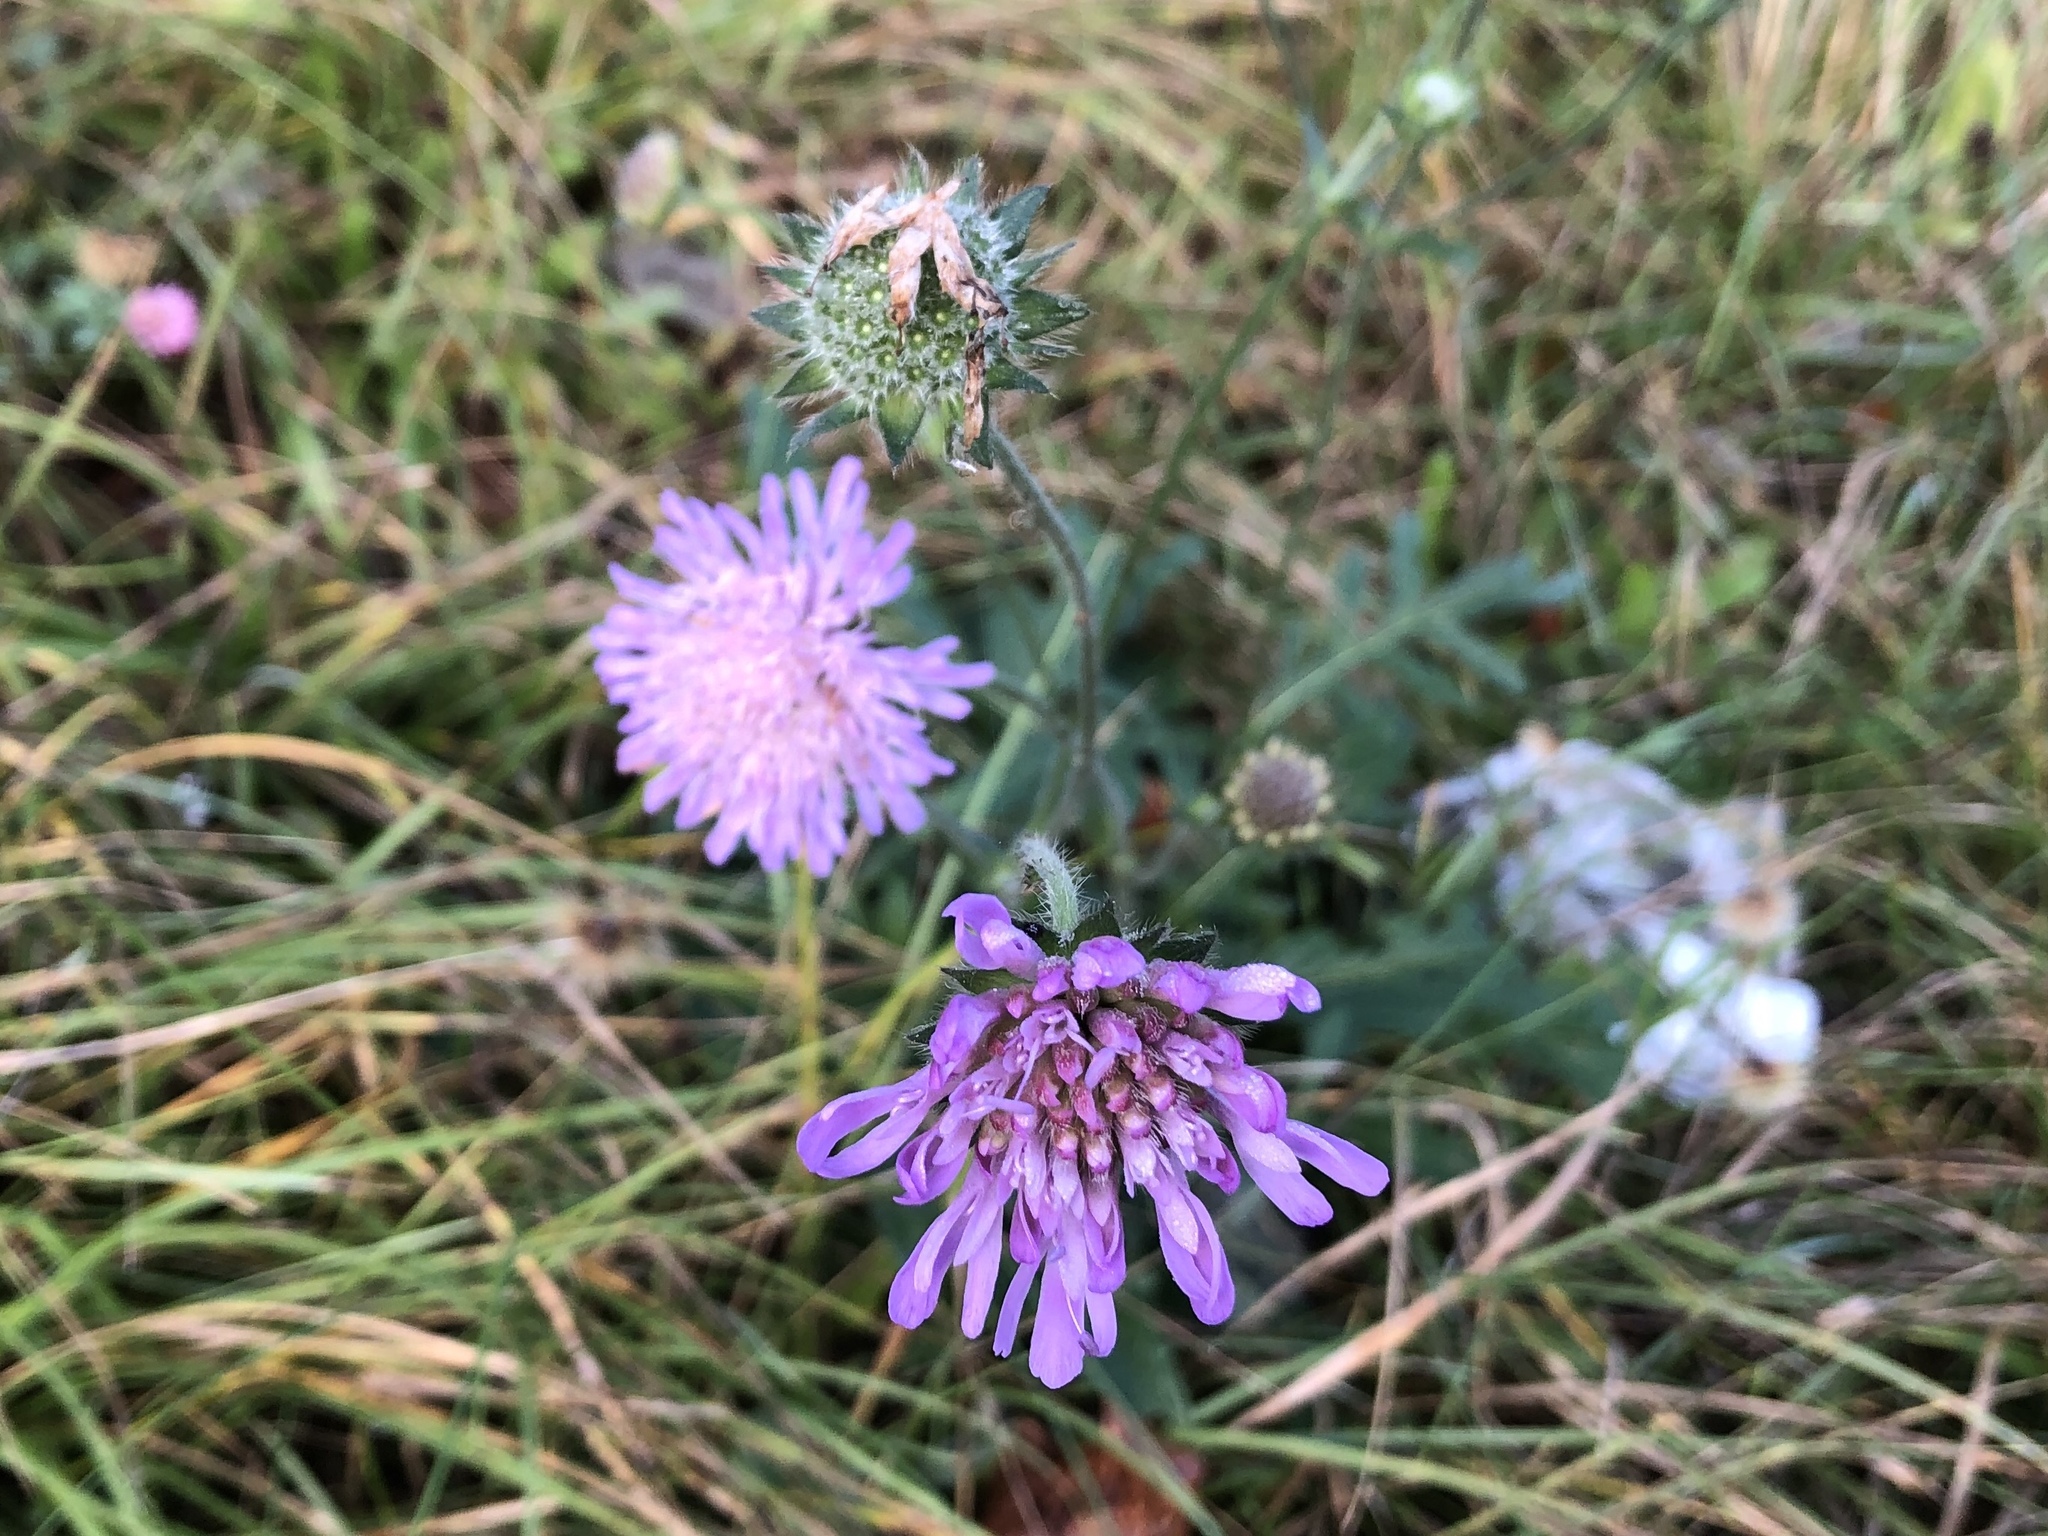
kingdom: Plantae
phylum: Tracheophyta
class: Magnoliopsida
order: Dipsacales
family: Caprifoliaceae
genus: Knautia
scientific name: Knautia arvensis
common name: Field scabiosa
